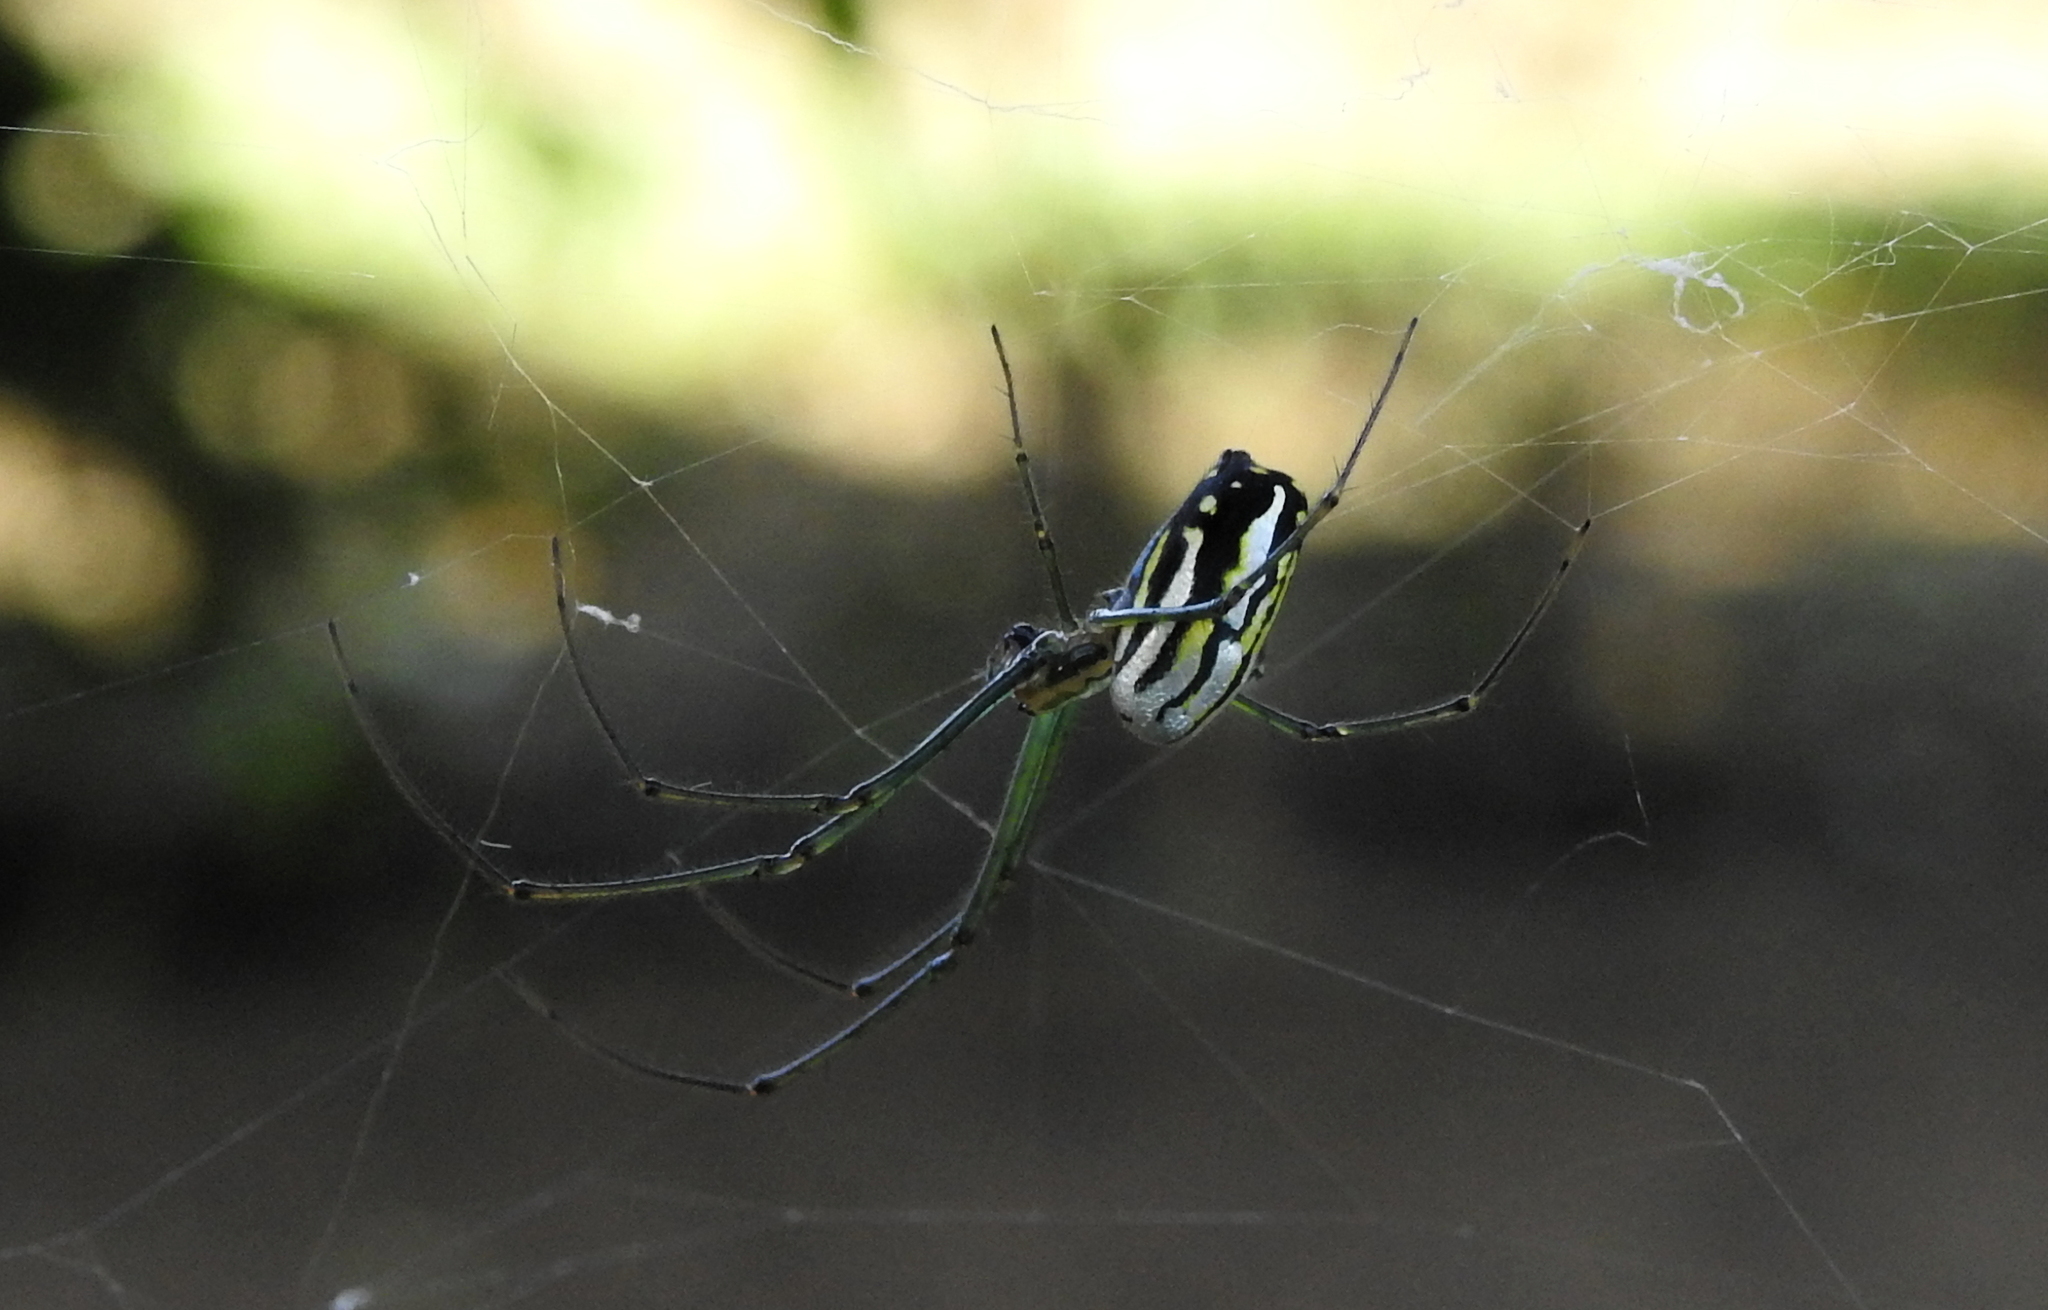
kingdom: Animalia
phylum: Arthropoda
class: Arachnida
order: Araneae
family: Tetragnathidae
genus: Leucauge
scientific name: Leucauge argyra
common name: Longjawed orb weavers
